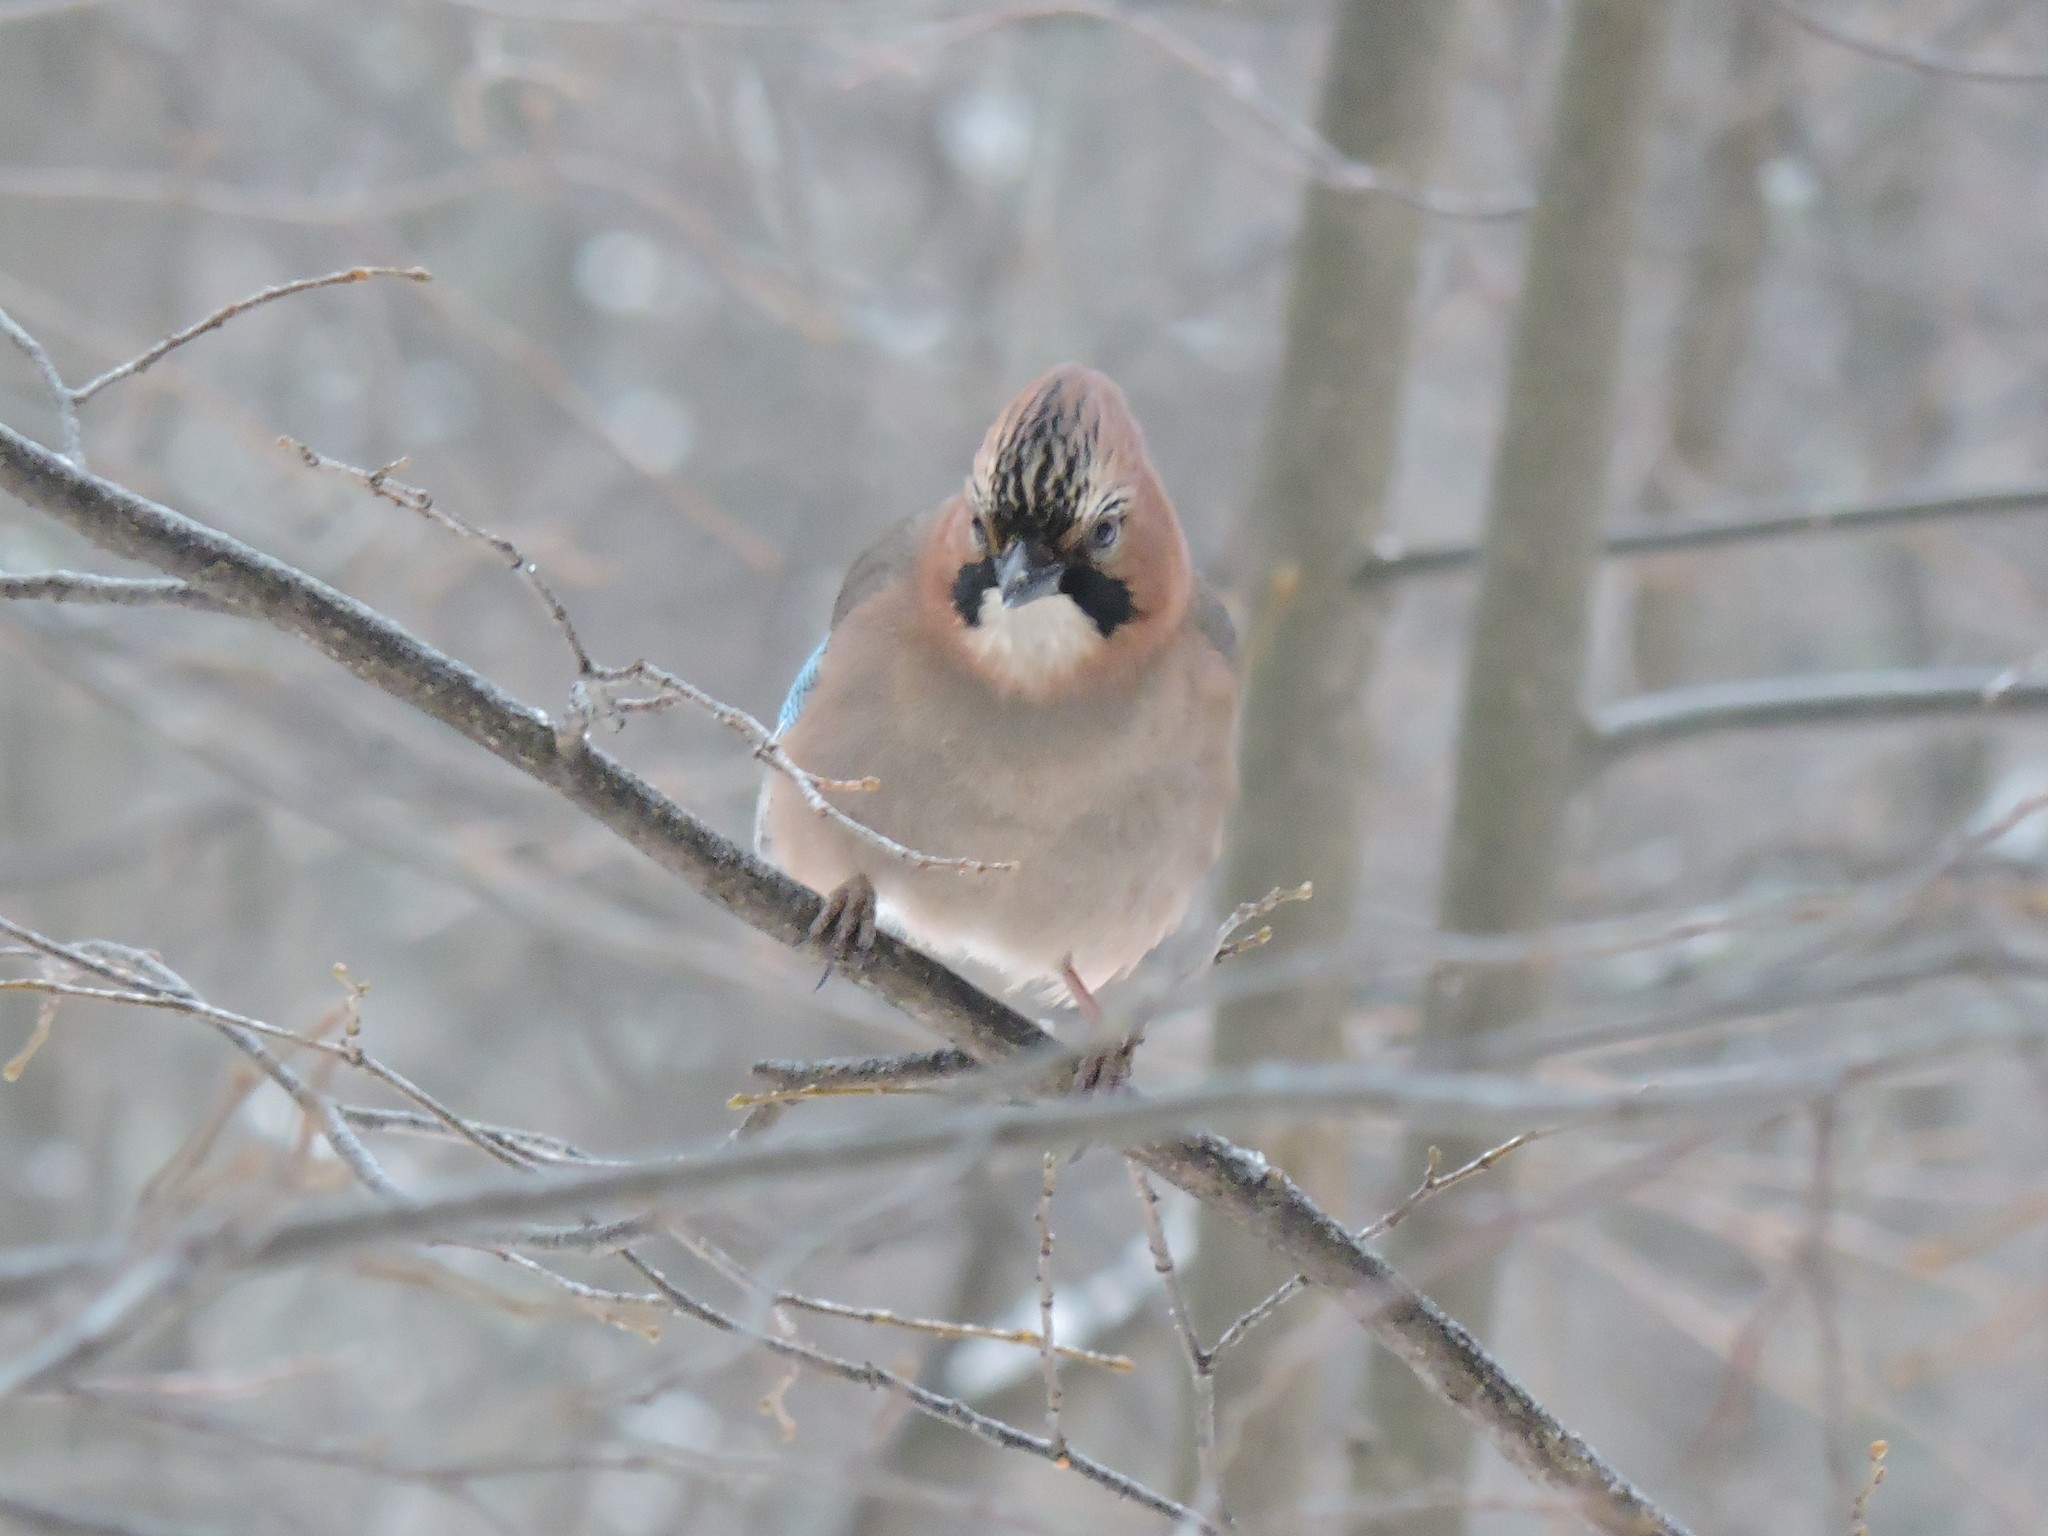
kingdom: Animalia
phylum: Chordata
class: Aves
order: Passeriformes
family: Corvidae
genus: Garrulus
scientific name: Garrulus glandarius
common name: Eurasian jay
